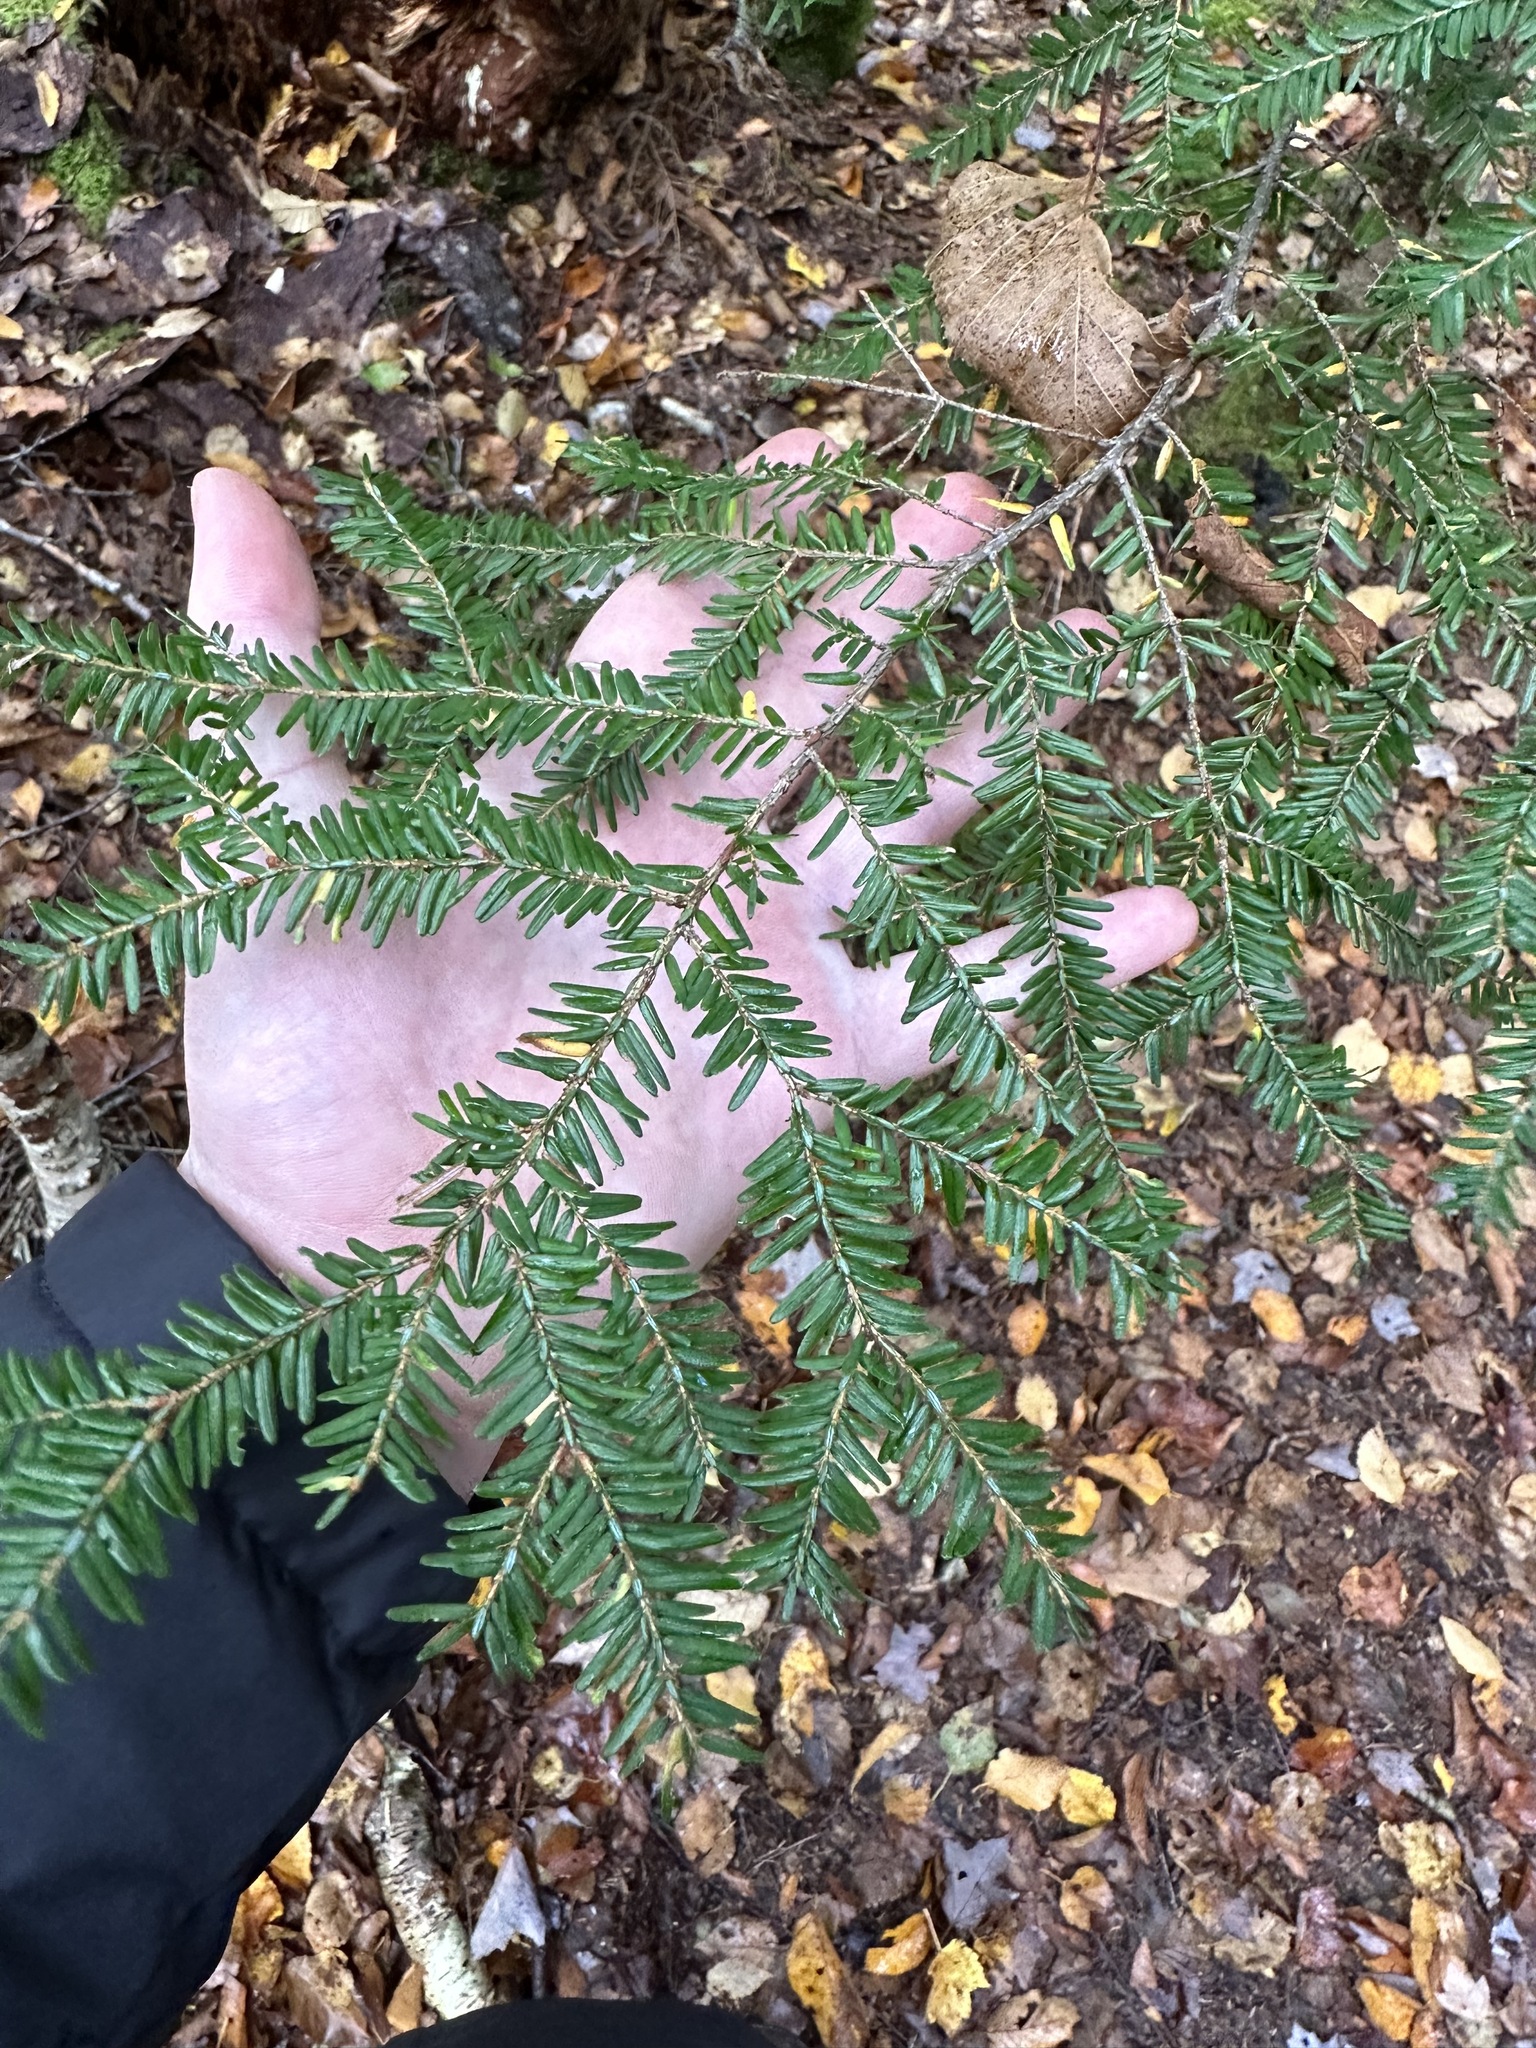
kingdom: Plantae
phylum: Tracheophyta
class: Pinopsida
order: Pinales
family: Pinaceae
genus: Tsuga
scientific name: Tsuga canadensis
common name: Eastern hemlock
